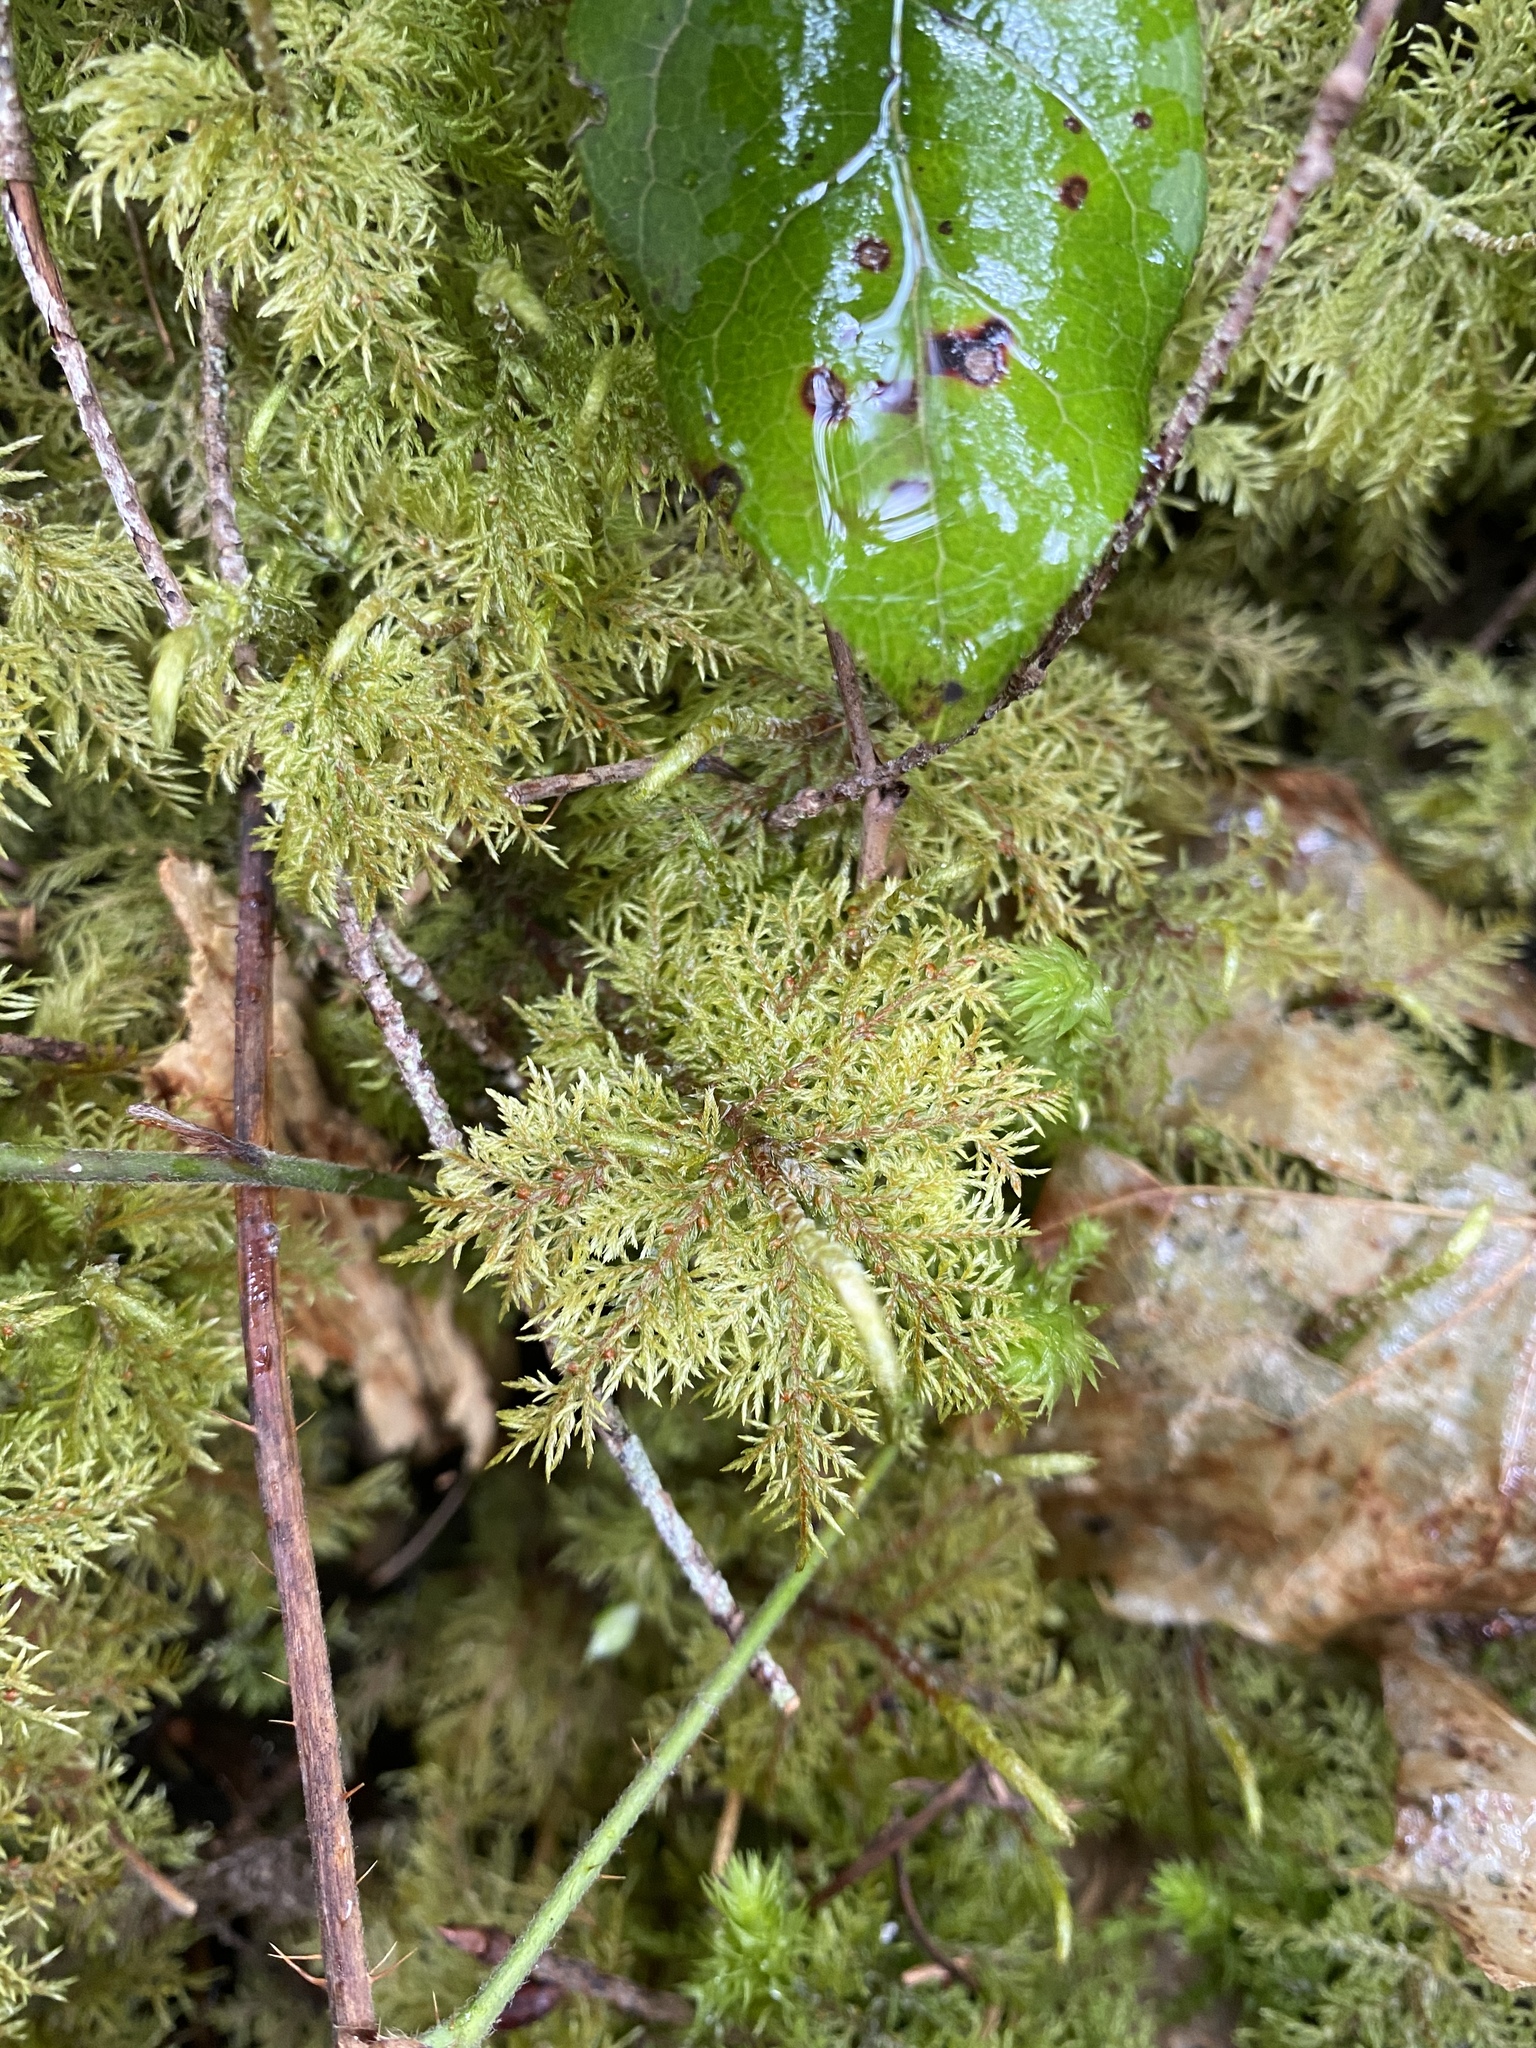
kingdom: Plantae
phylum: Bryophyta
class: Bryopsida
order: Hypnales
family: Hylocomiaceae
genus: Hylocomium
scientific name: Hylocomium splendens
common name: Stairstep moss
